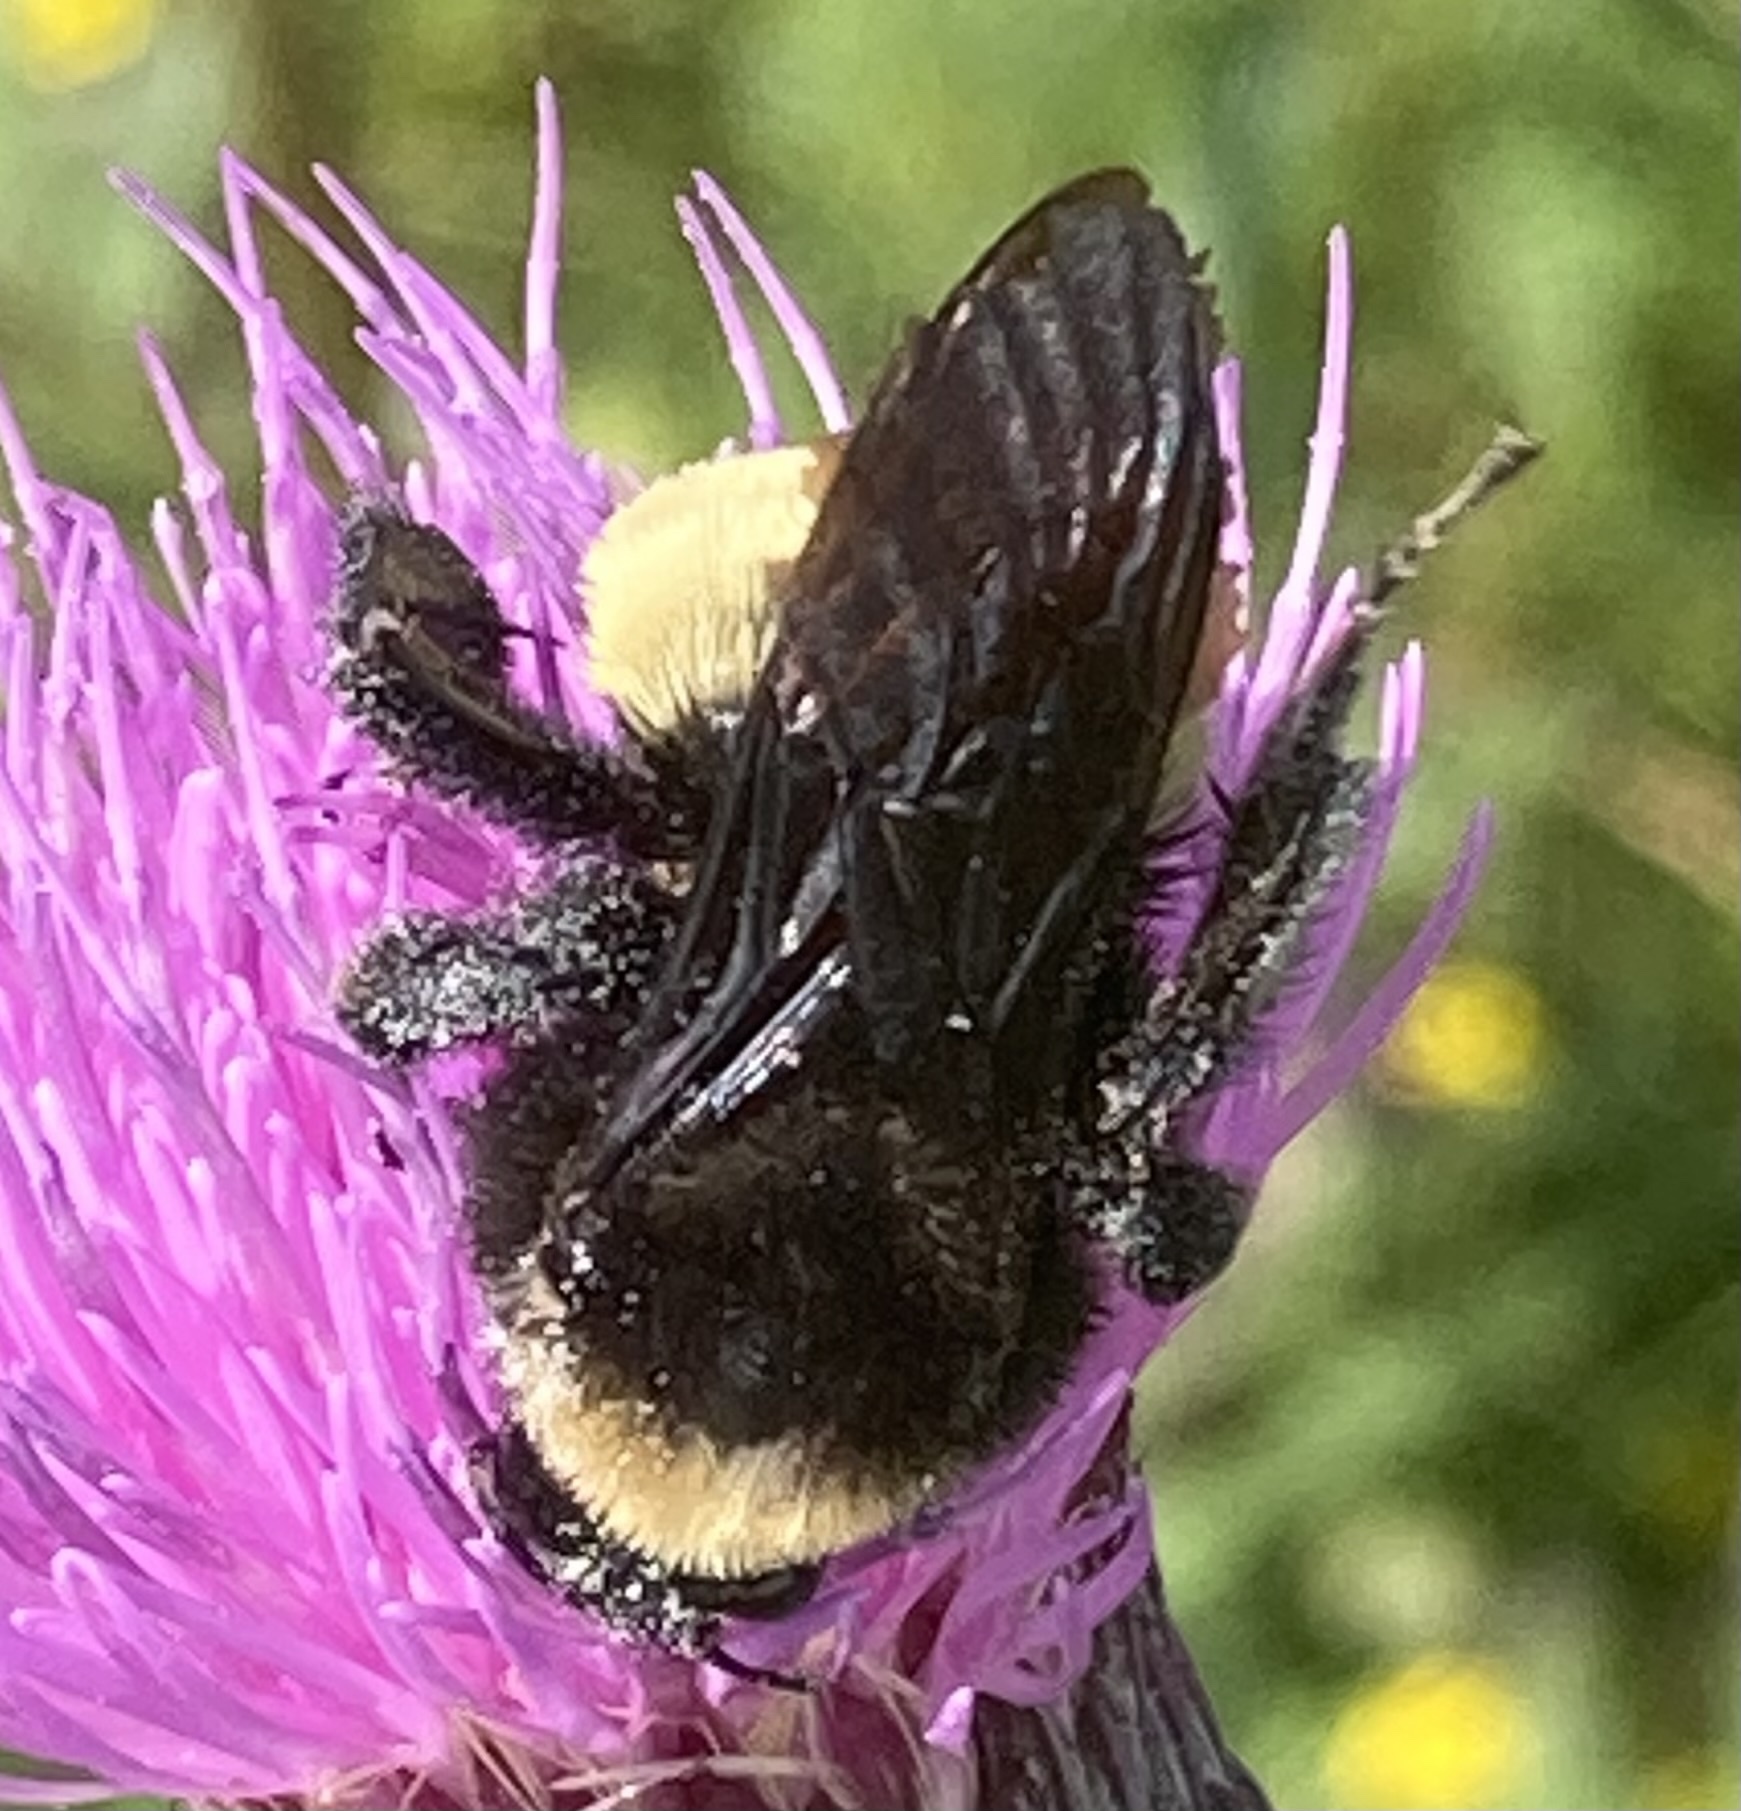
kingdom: Animalia
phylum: Arthropoda
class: Insecta
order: Hymenoptera
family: Apidae
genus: Bombus
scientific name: Bombus pensylvanicus
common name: Bumble bee
